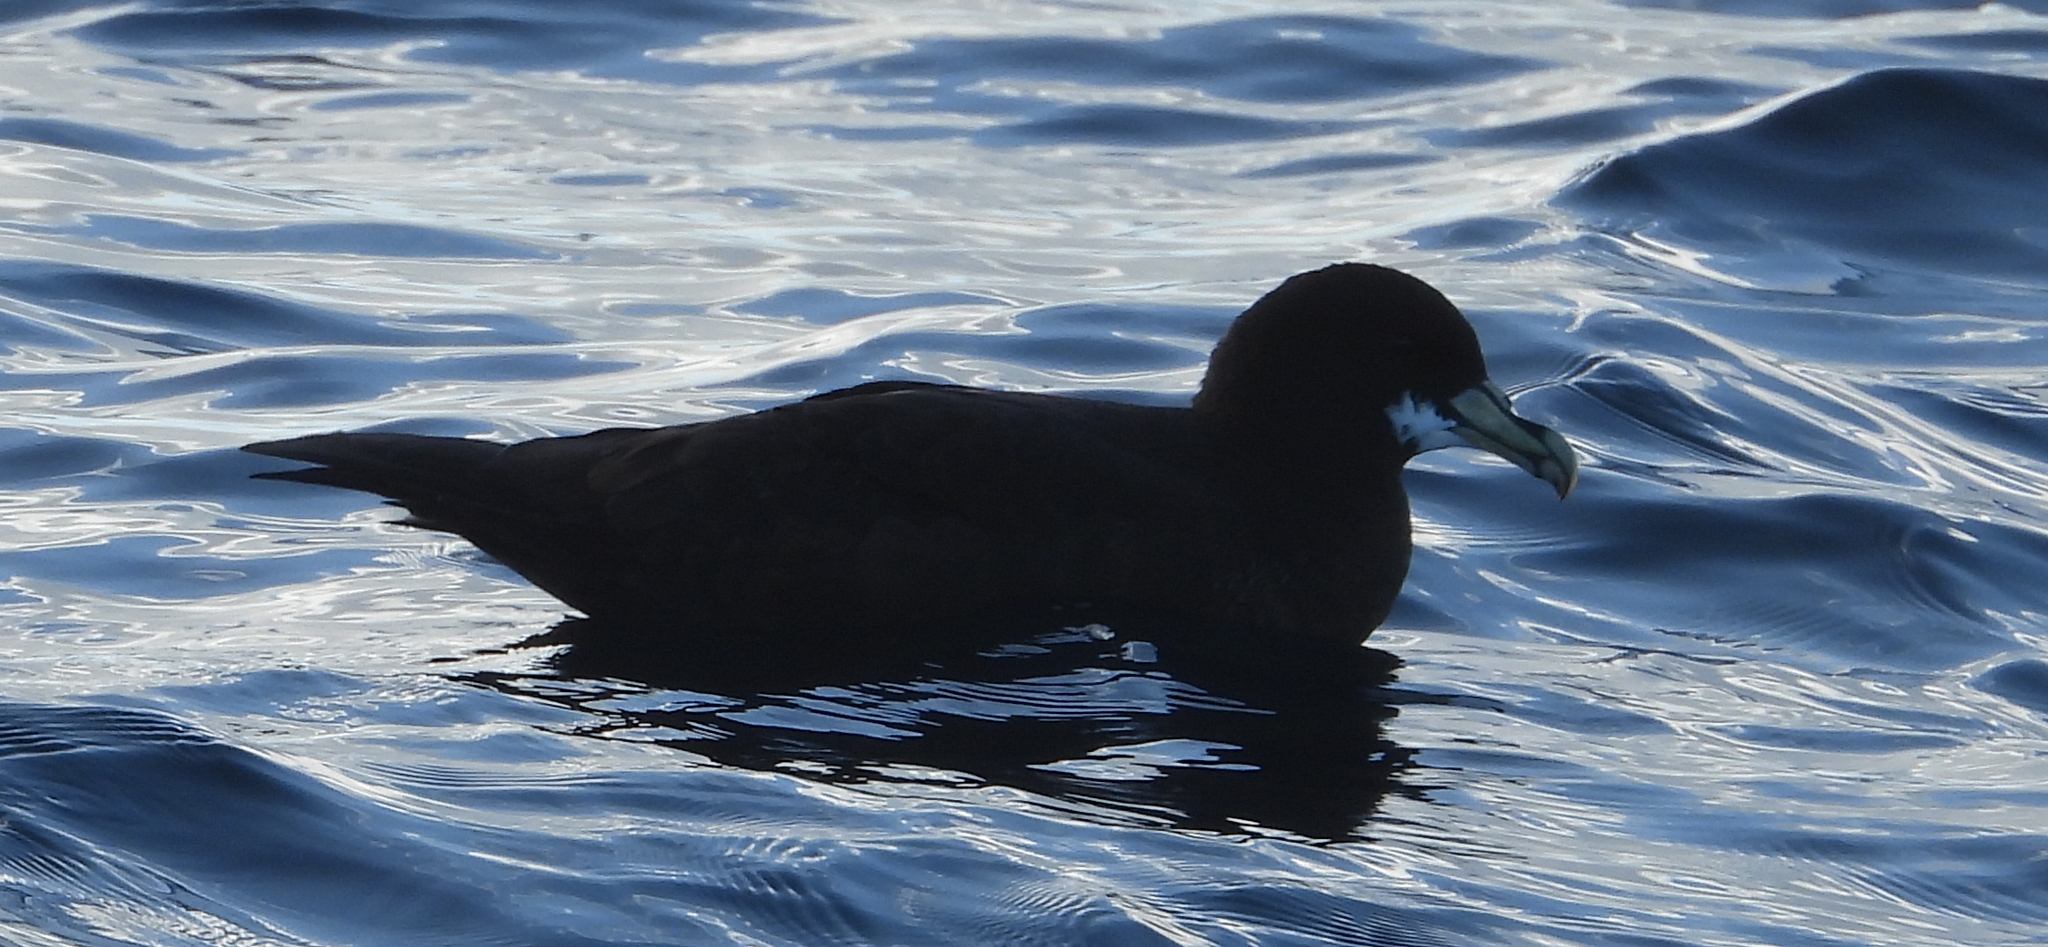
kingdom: Animalia
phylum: Chordata
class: Aves
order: Procellariiformes
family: Procellariidae
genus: Procellaria
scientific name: Procellaria aequinoctialis
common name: White-chinned petrel
